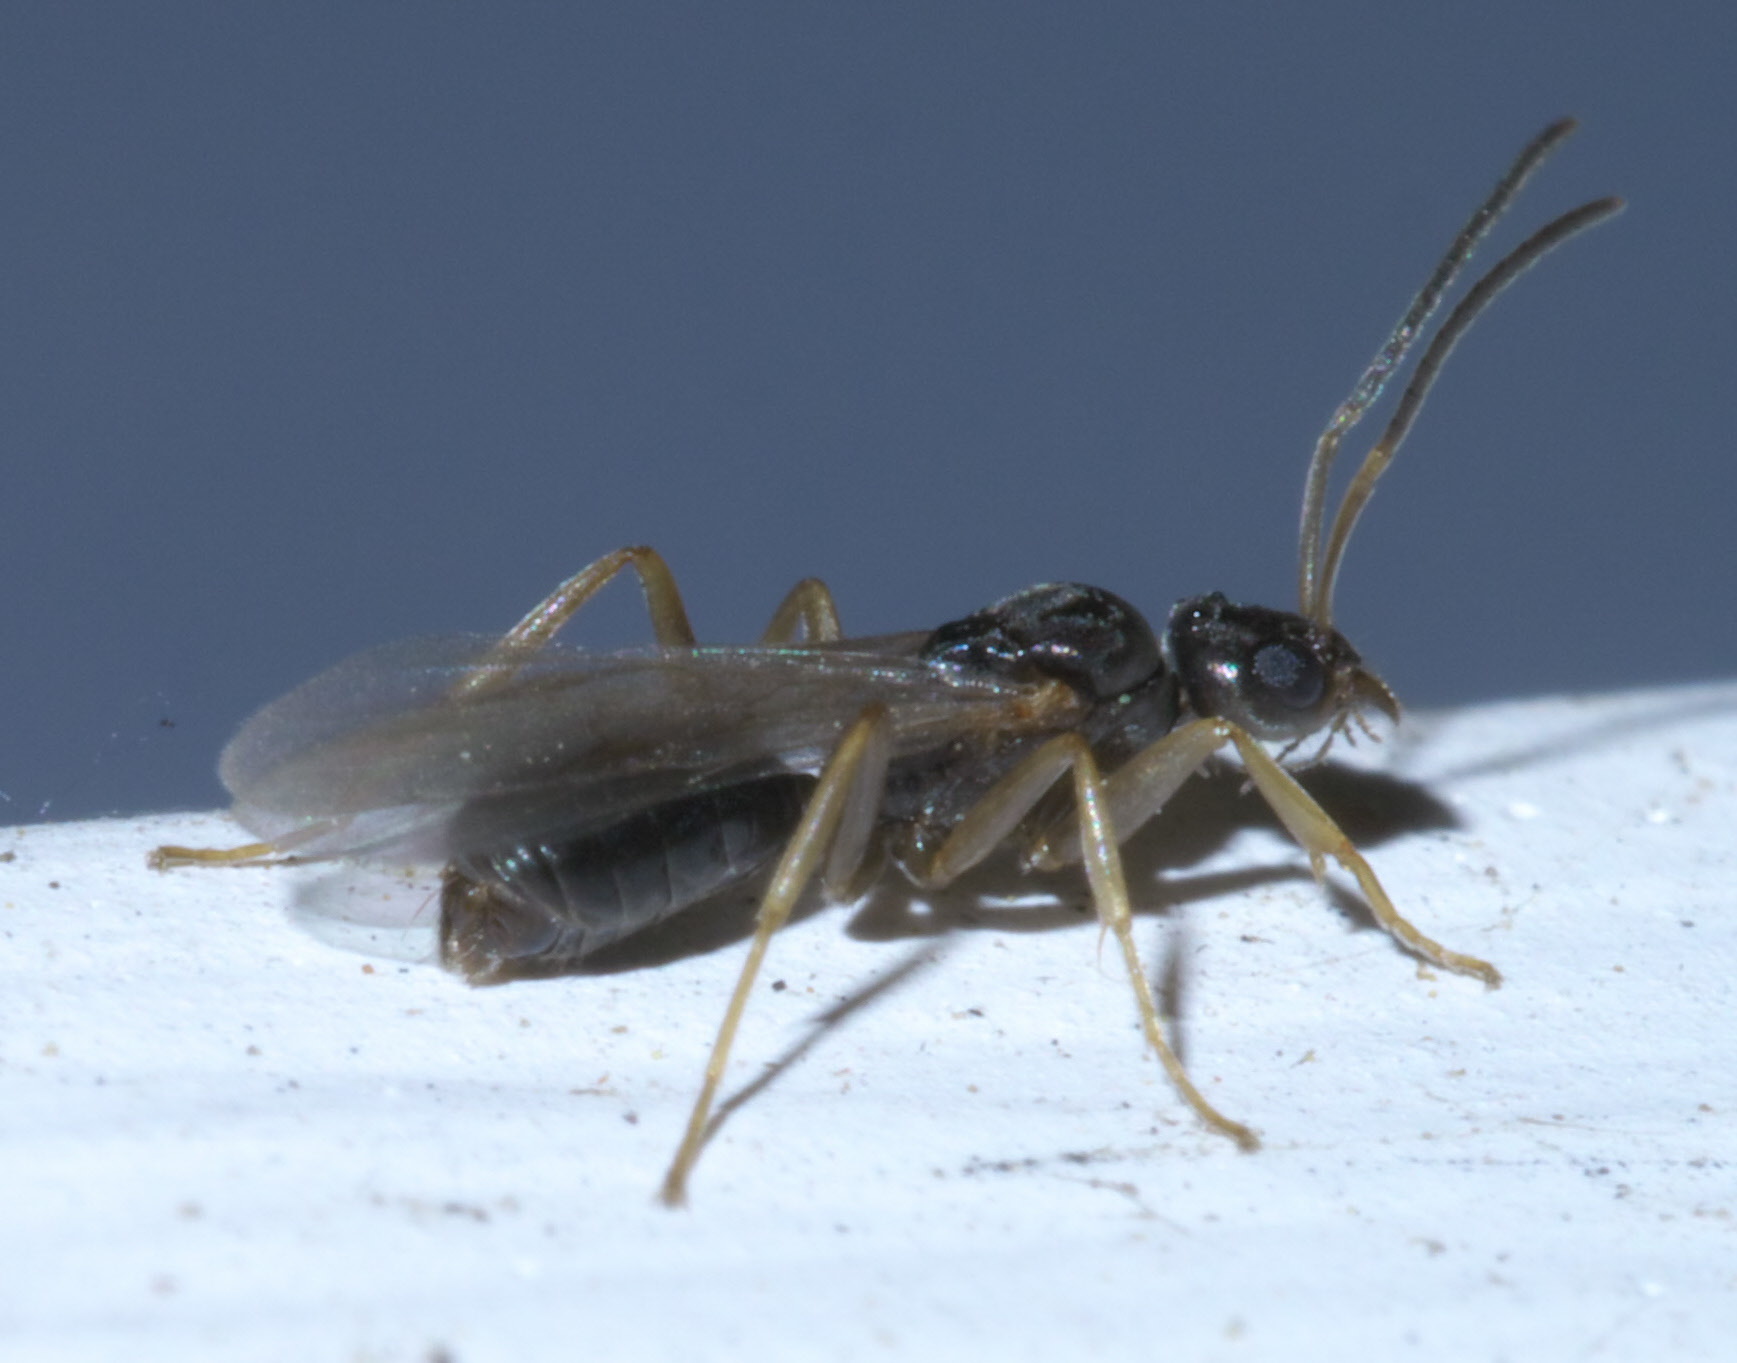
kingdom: Animalia
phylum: Arthropoda
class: Insecta
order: Hymenoptera
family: Formicidae
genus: Tapinoma
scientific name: Tapinoma sessile
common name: Odorous house ant
